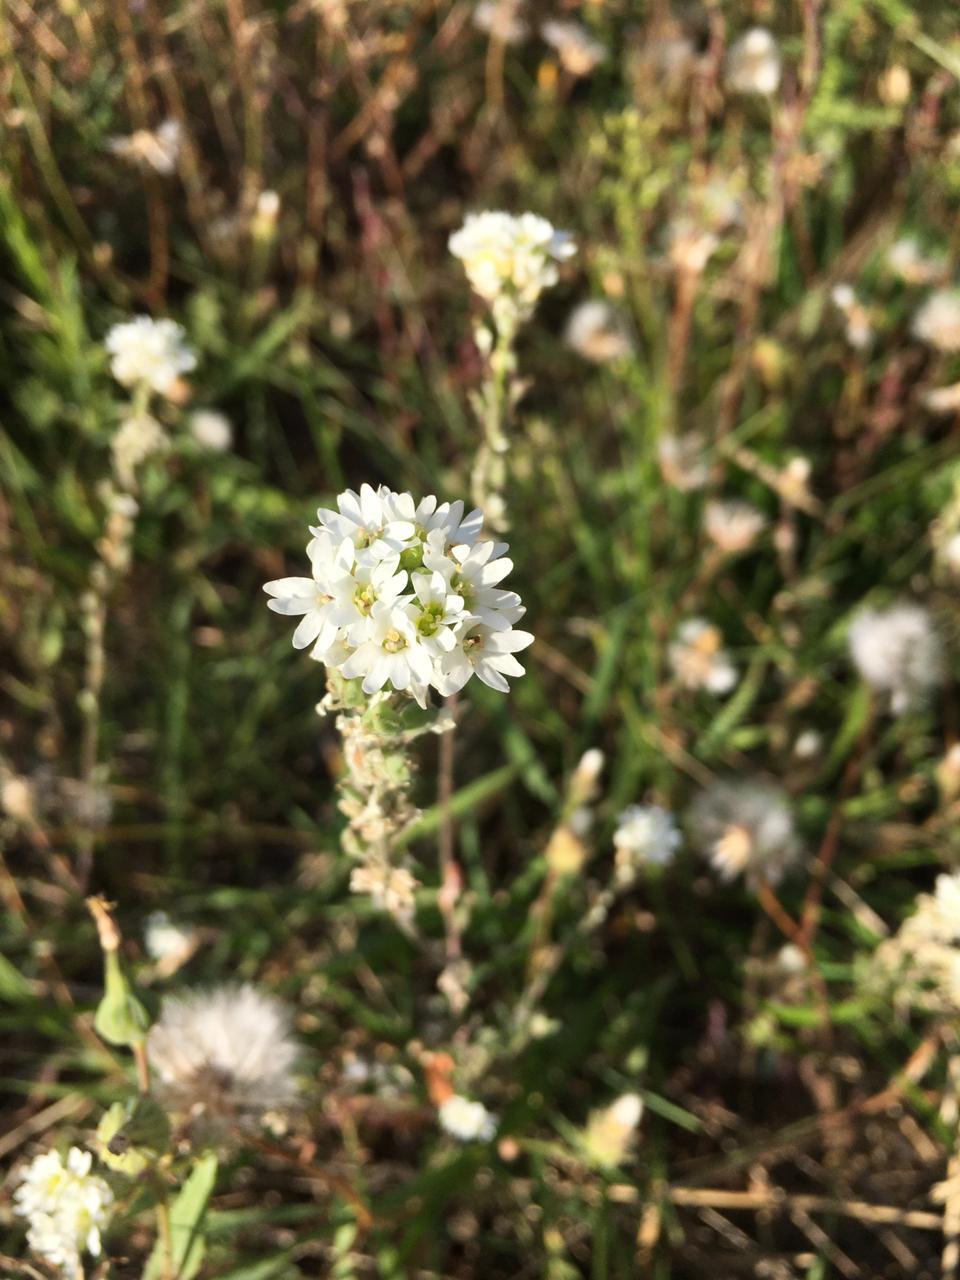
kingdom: Plantae
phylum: Tracheophyta
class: Magnoliopsida
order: Brassicales
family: Brassicaceae
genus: Berteroa
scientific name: Berteroa incana
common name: Hoary alison
